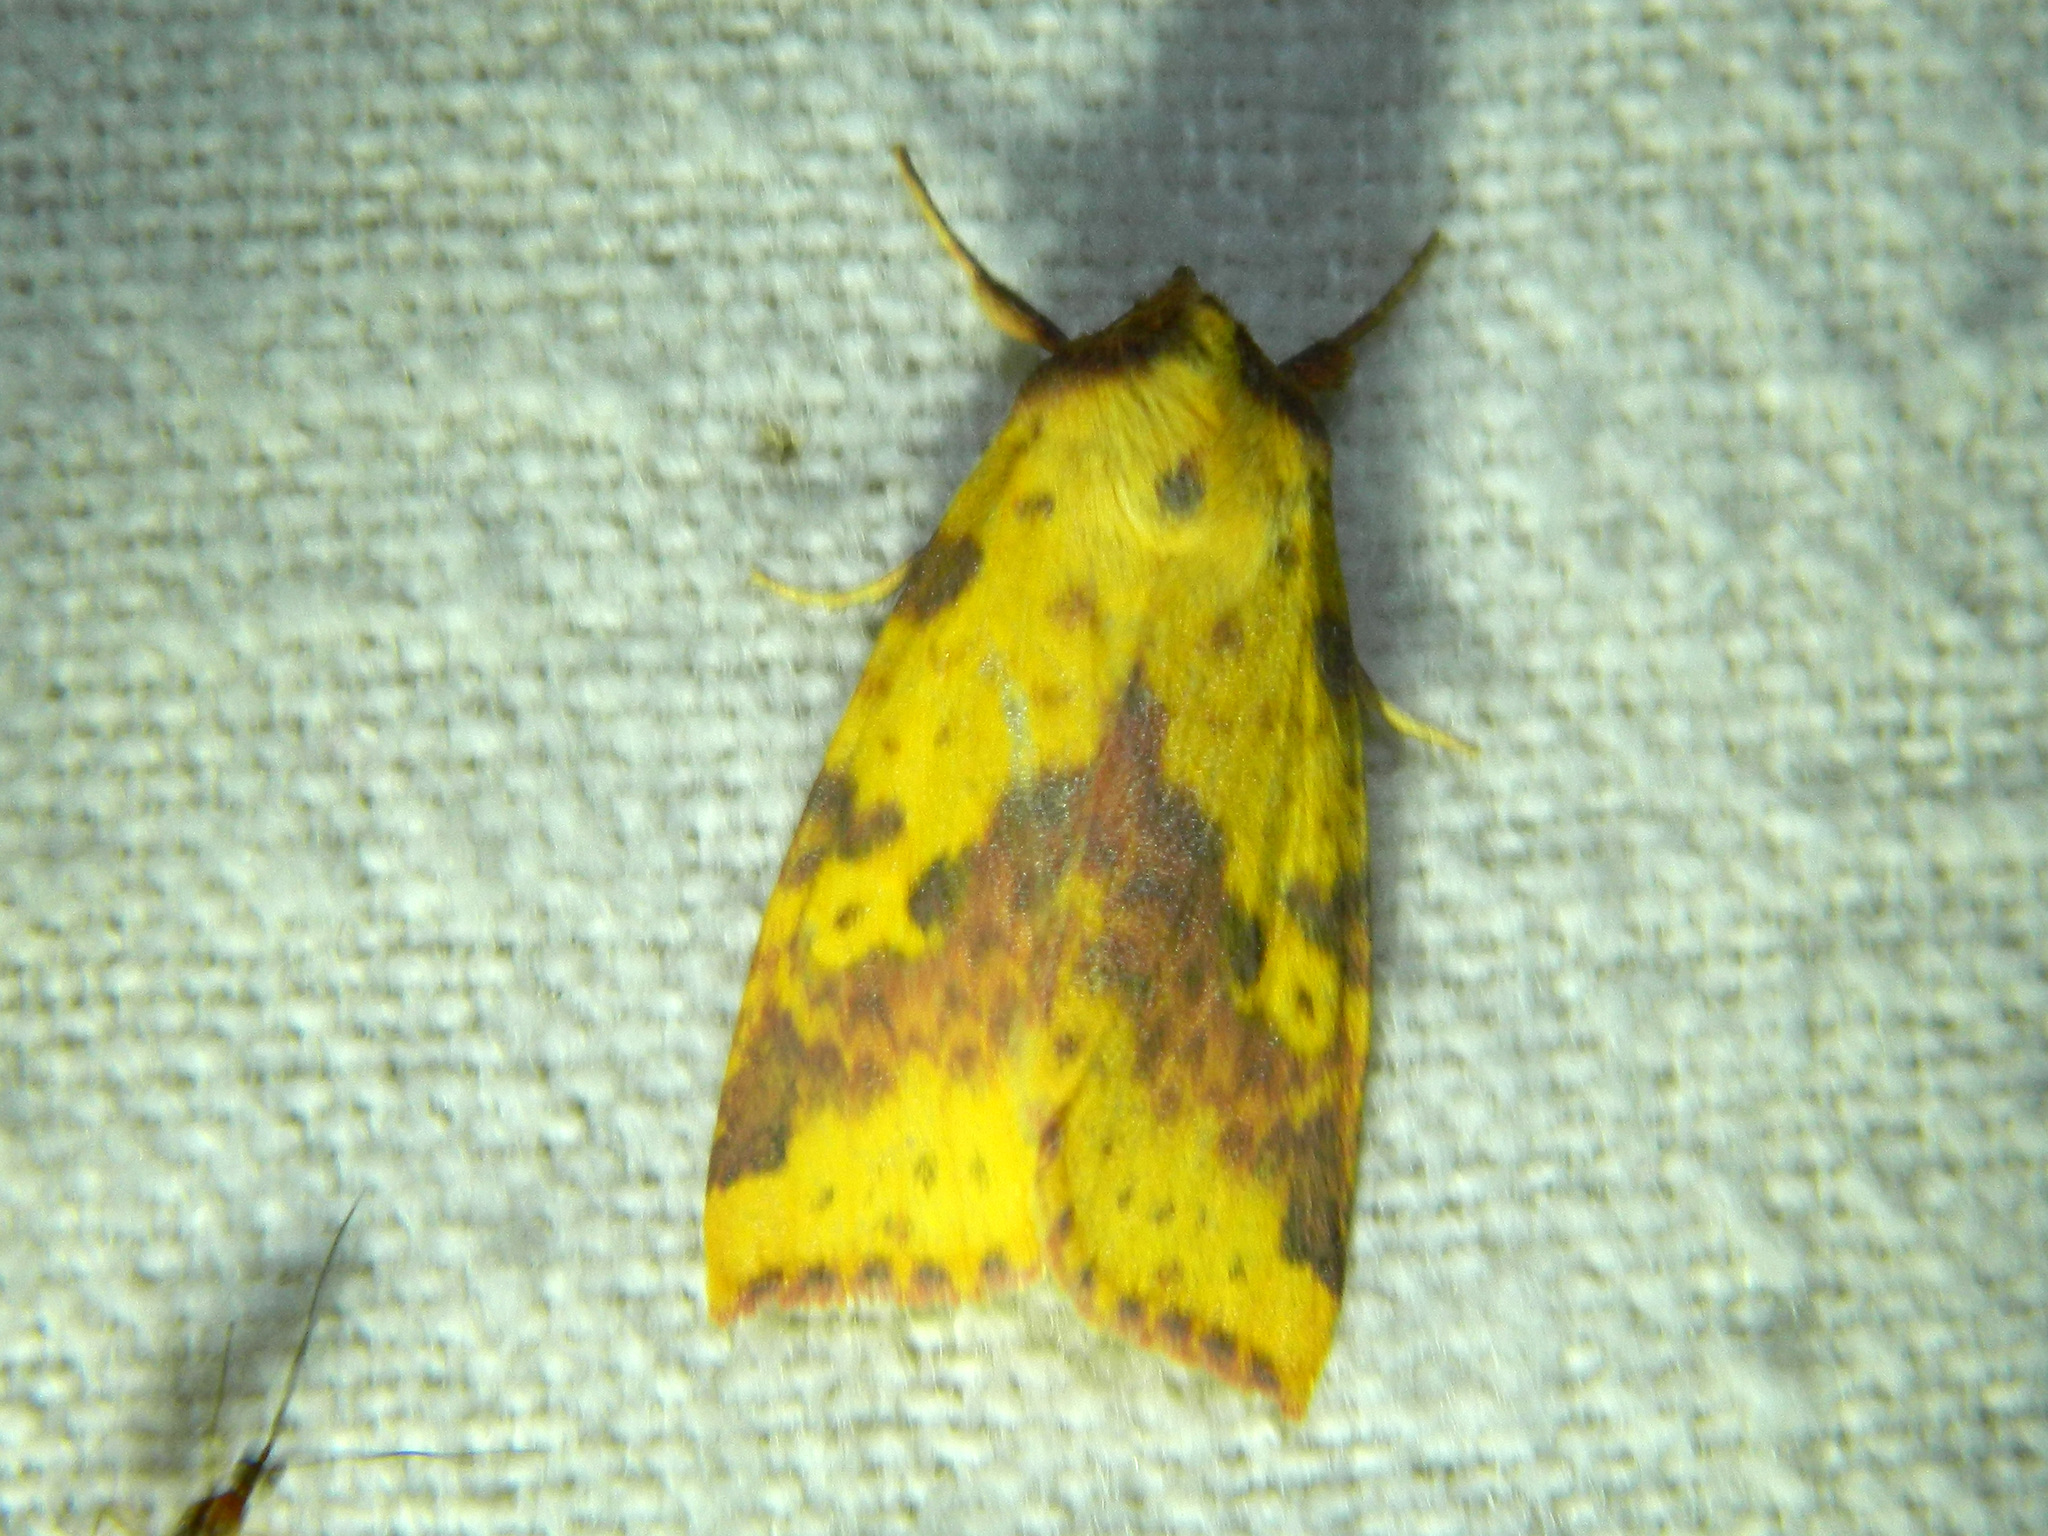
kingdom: Animalia
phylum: Arthropoda
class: Insecta
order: Lepidoptera
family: Noctuidae
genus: Xanthia
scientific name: Xanthia tatago
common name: Pink-banded sallow
